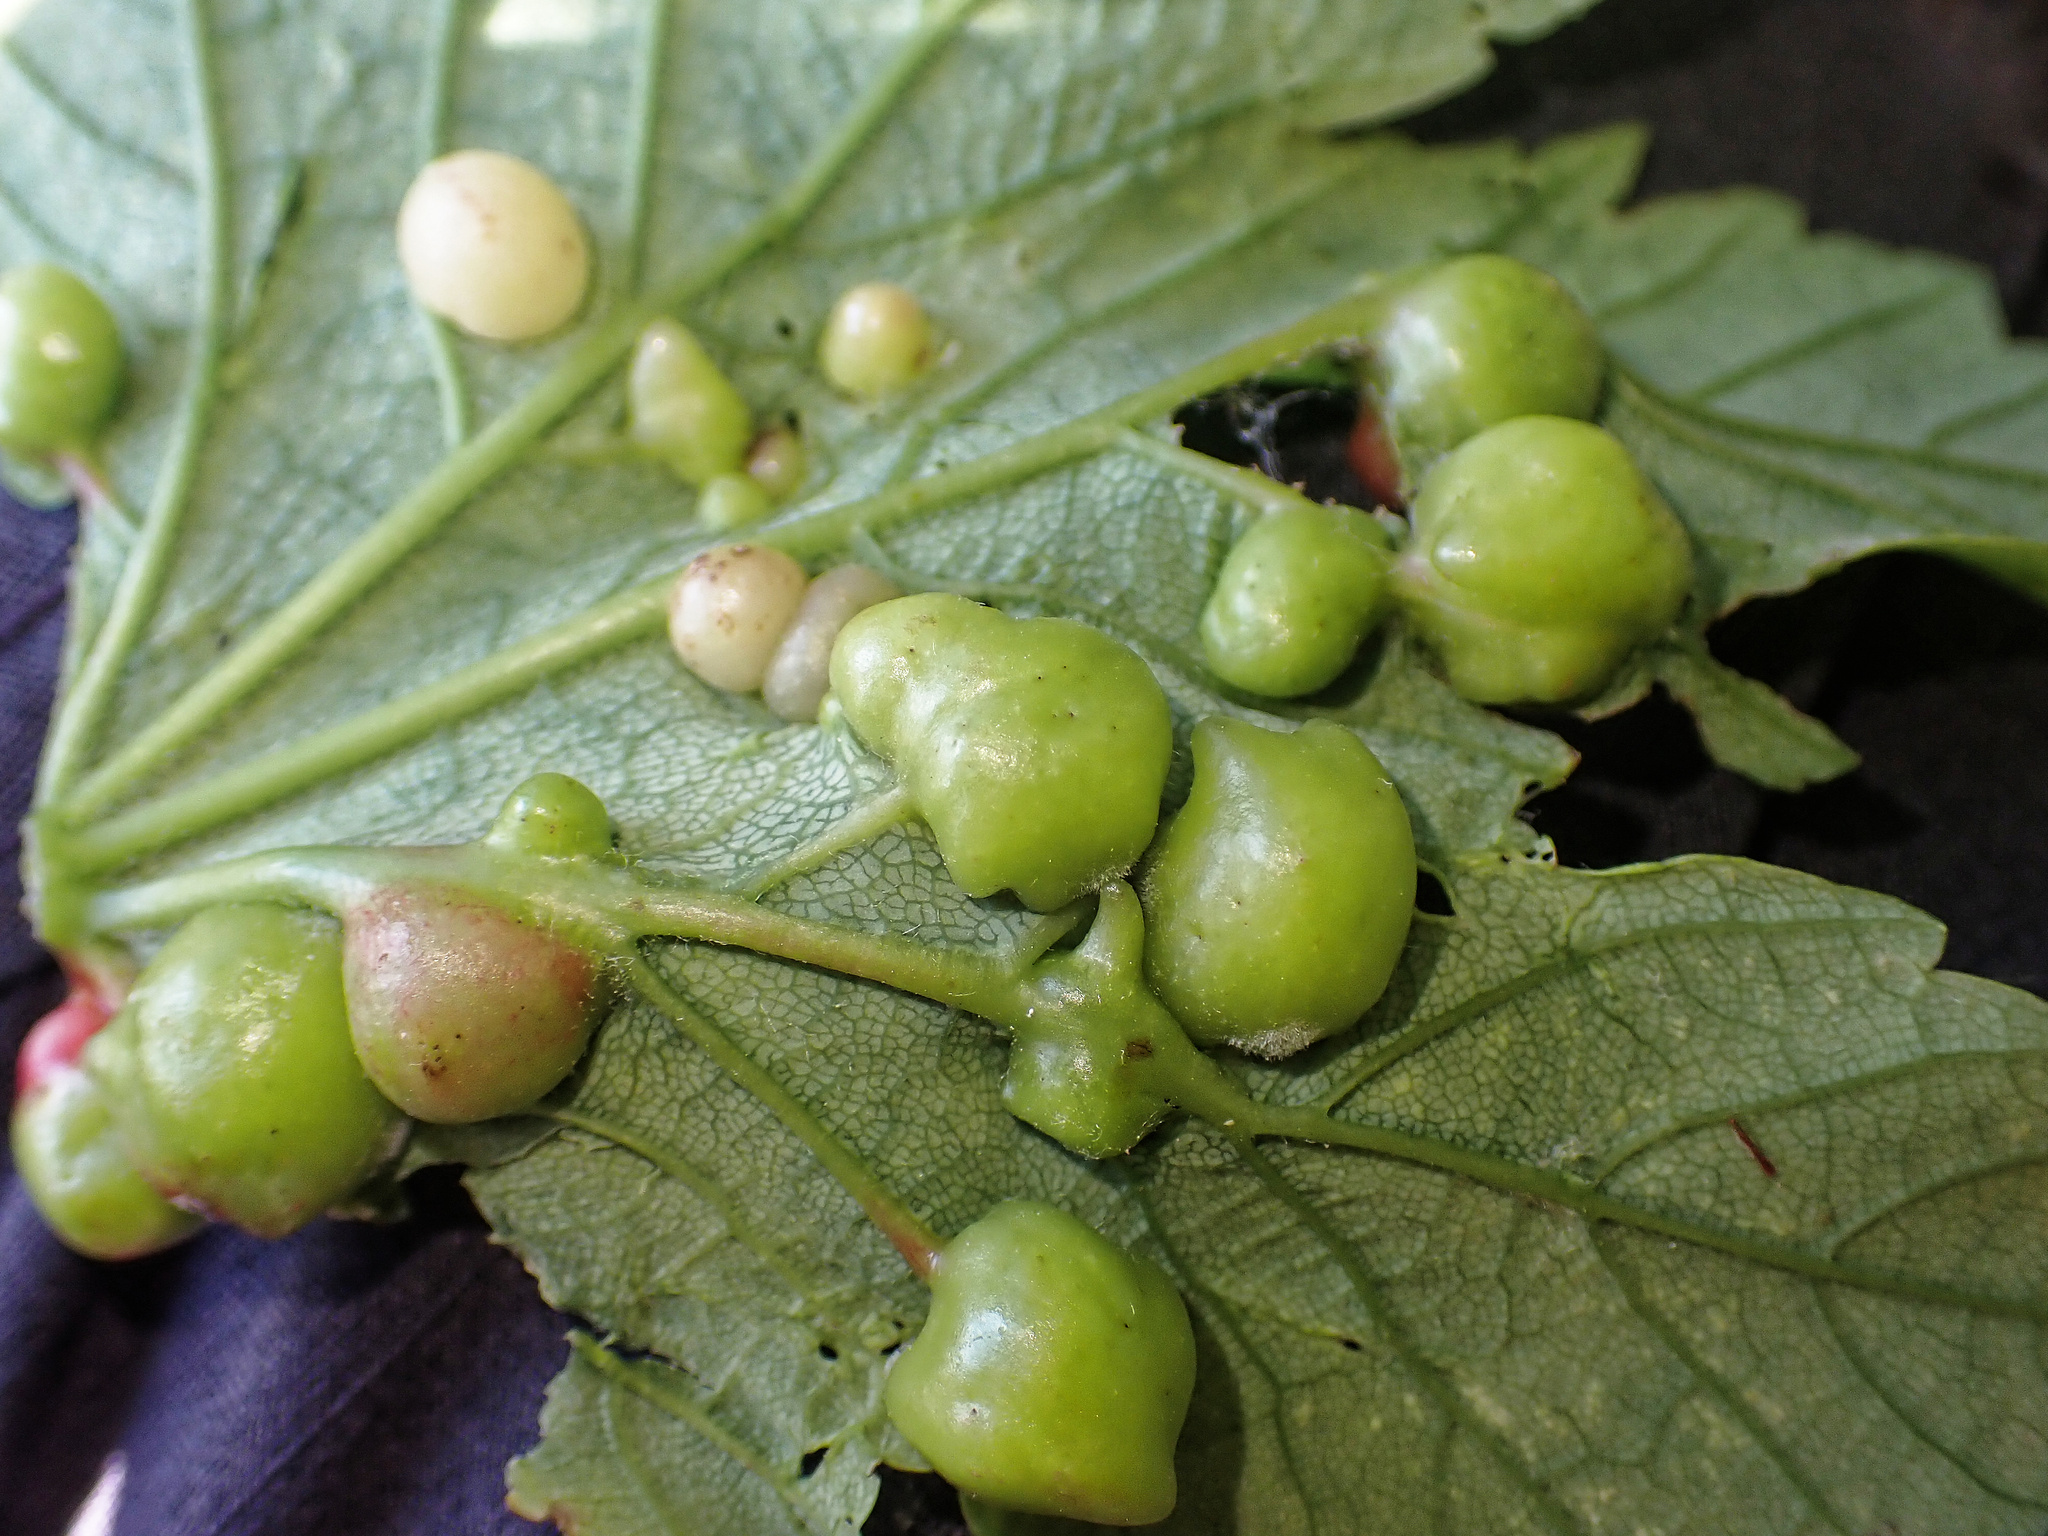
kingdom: Animalia
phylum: Arthropoda
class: Insecta
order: Hymenoptera
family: Cynipidae
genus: Pediaspis
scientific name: Pediaspis aceris
